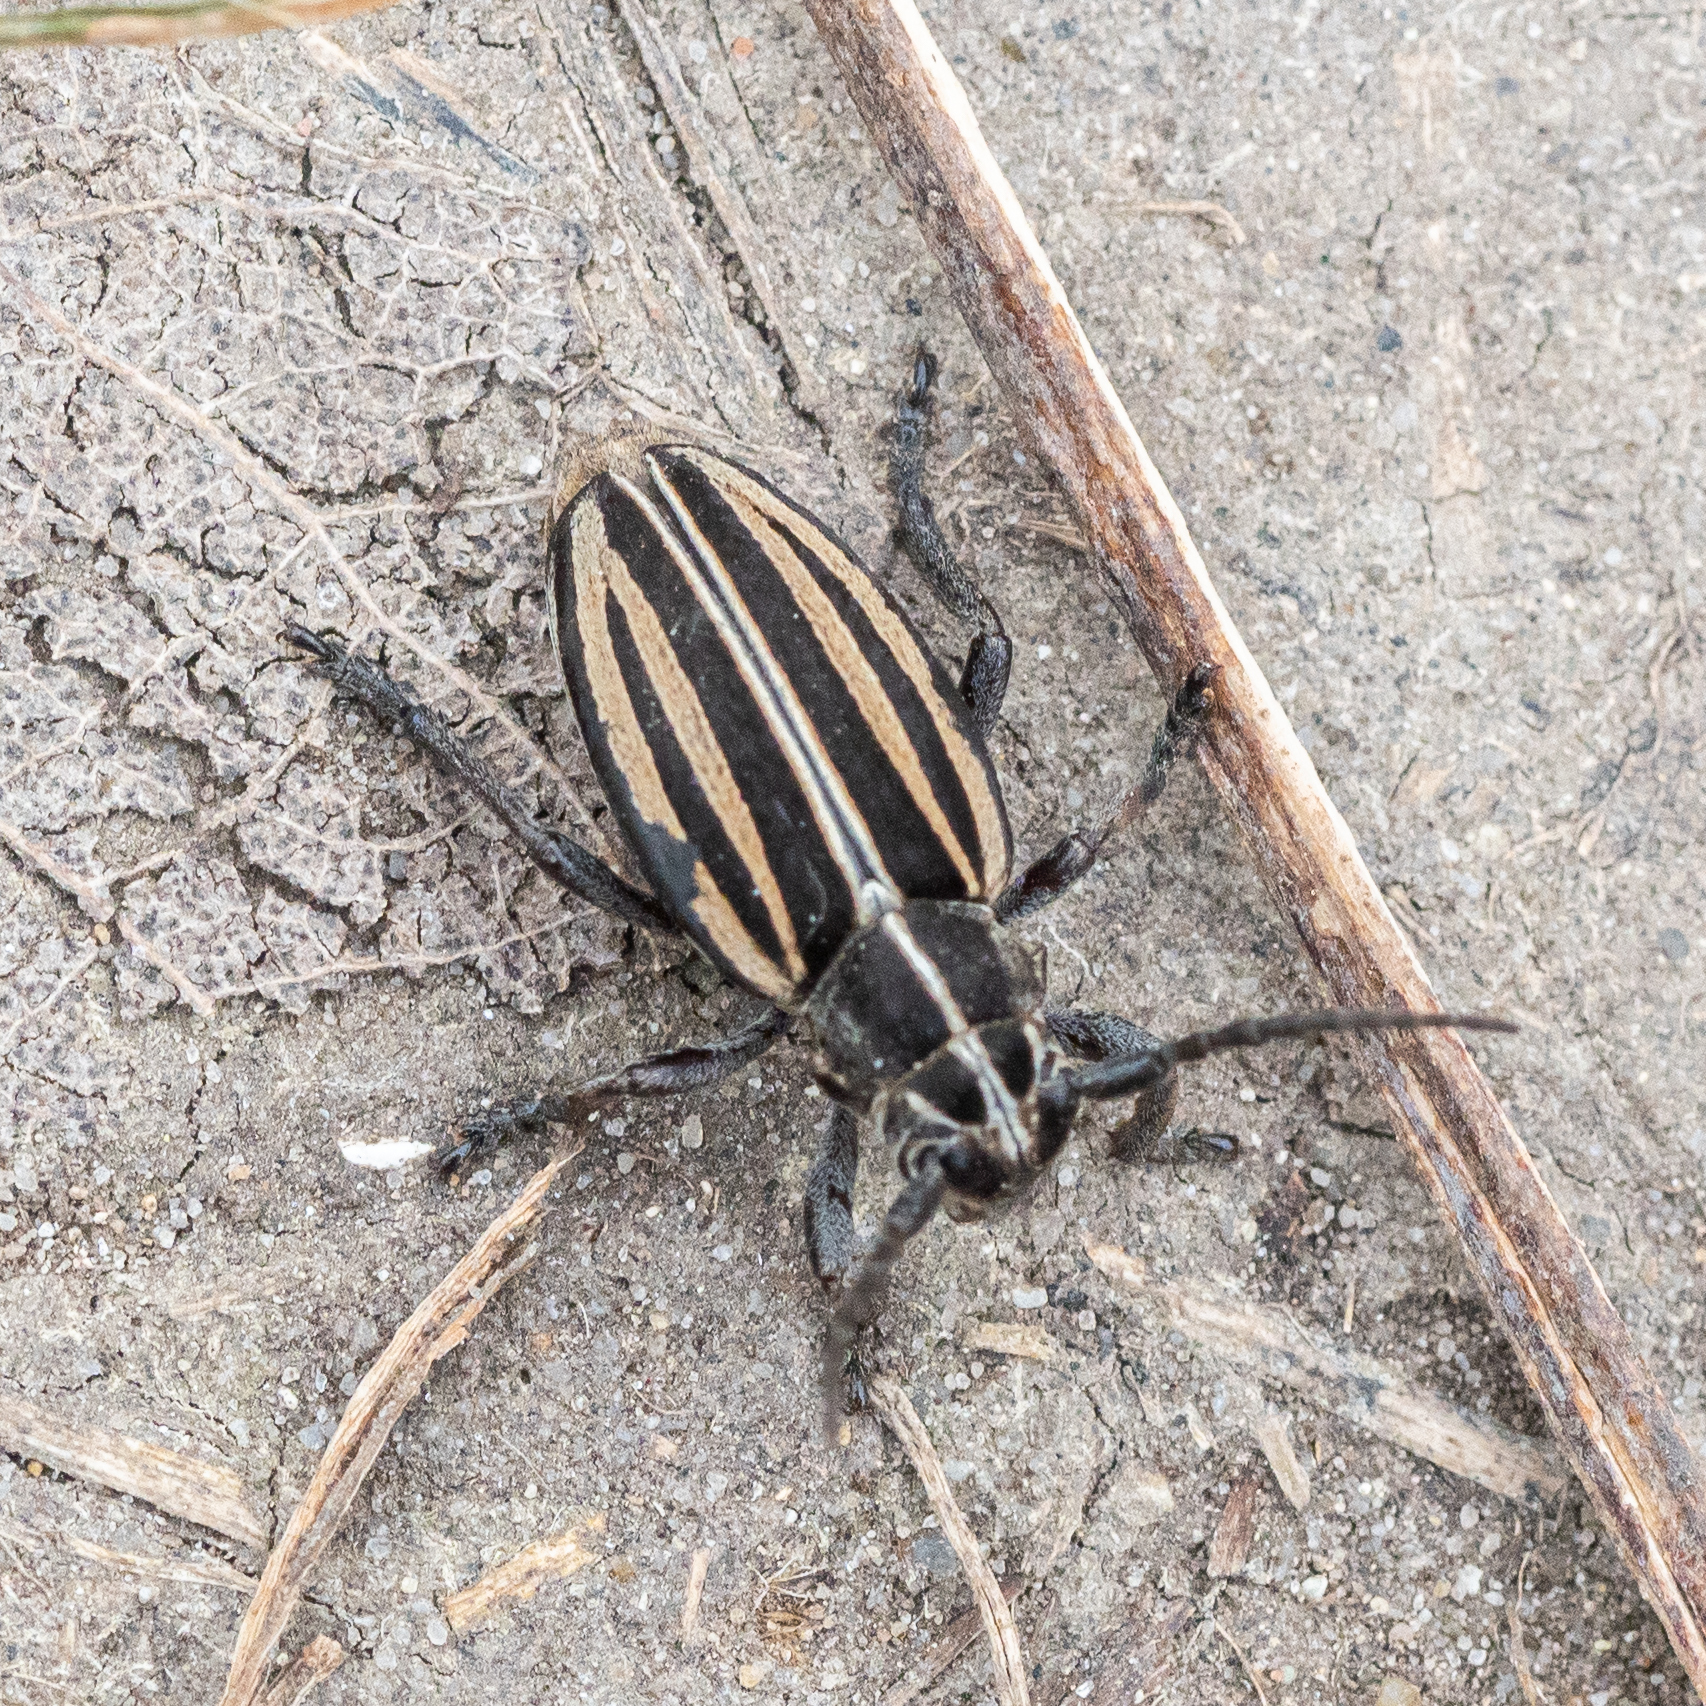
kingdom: Animalia
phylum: Arthropoda
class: Insecta
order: Coleoptera
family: Cerambycidae
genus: Dorcadion
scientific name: Dorcadion scopolii
